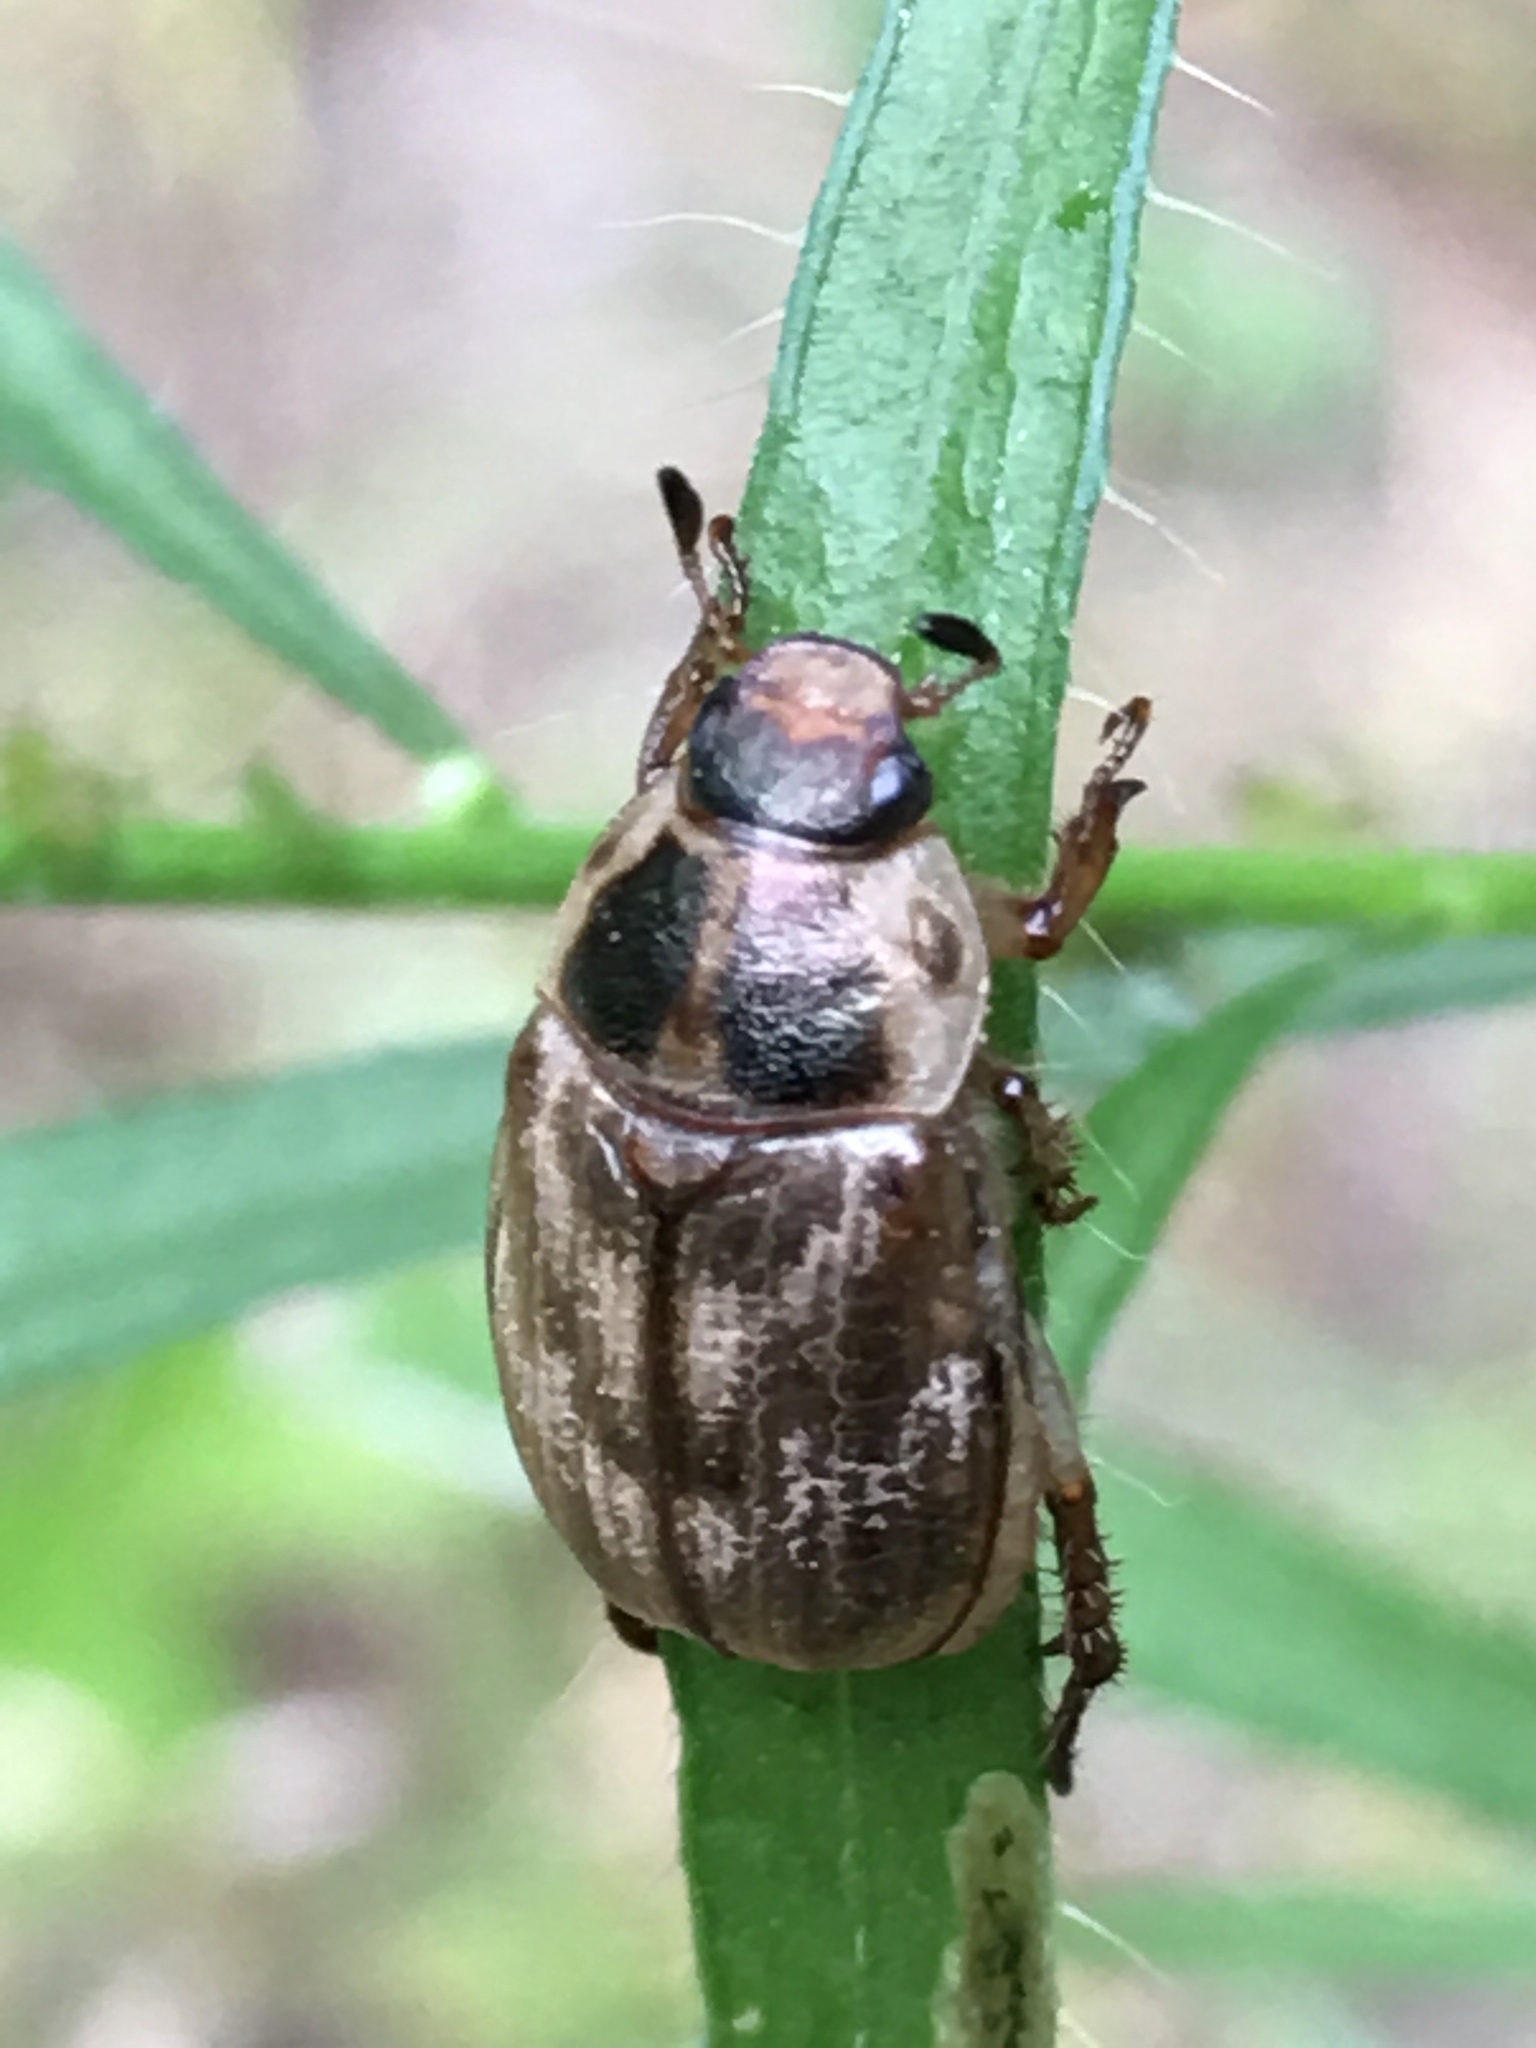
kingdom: Animalia
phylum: Arthropoda
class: Insecta
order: Coleoptera
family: Scarabaeidae
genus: Exomala
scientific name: Exomala orientalis
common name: Oriental beetle
